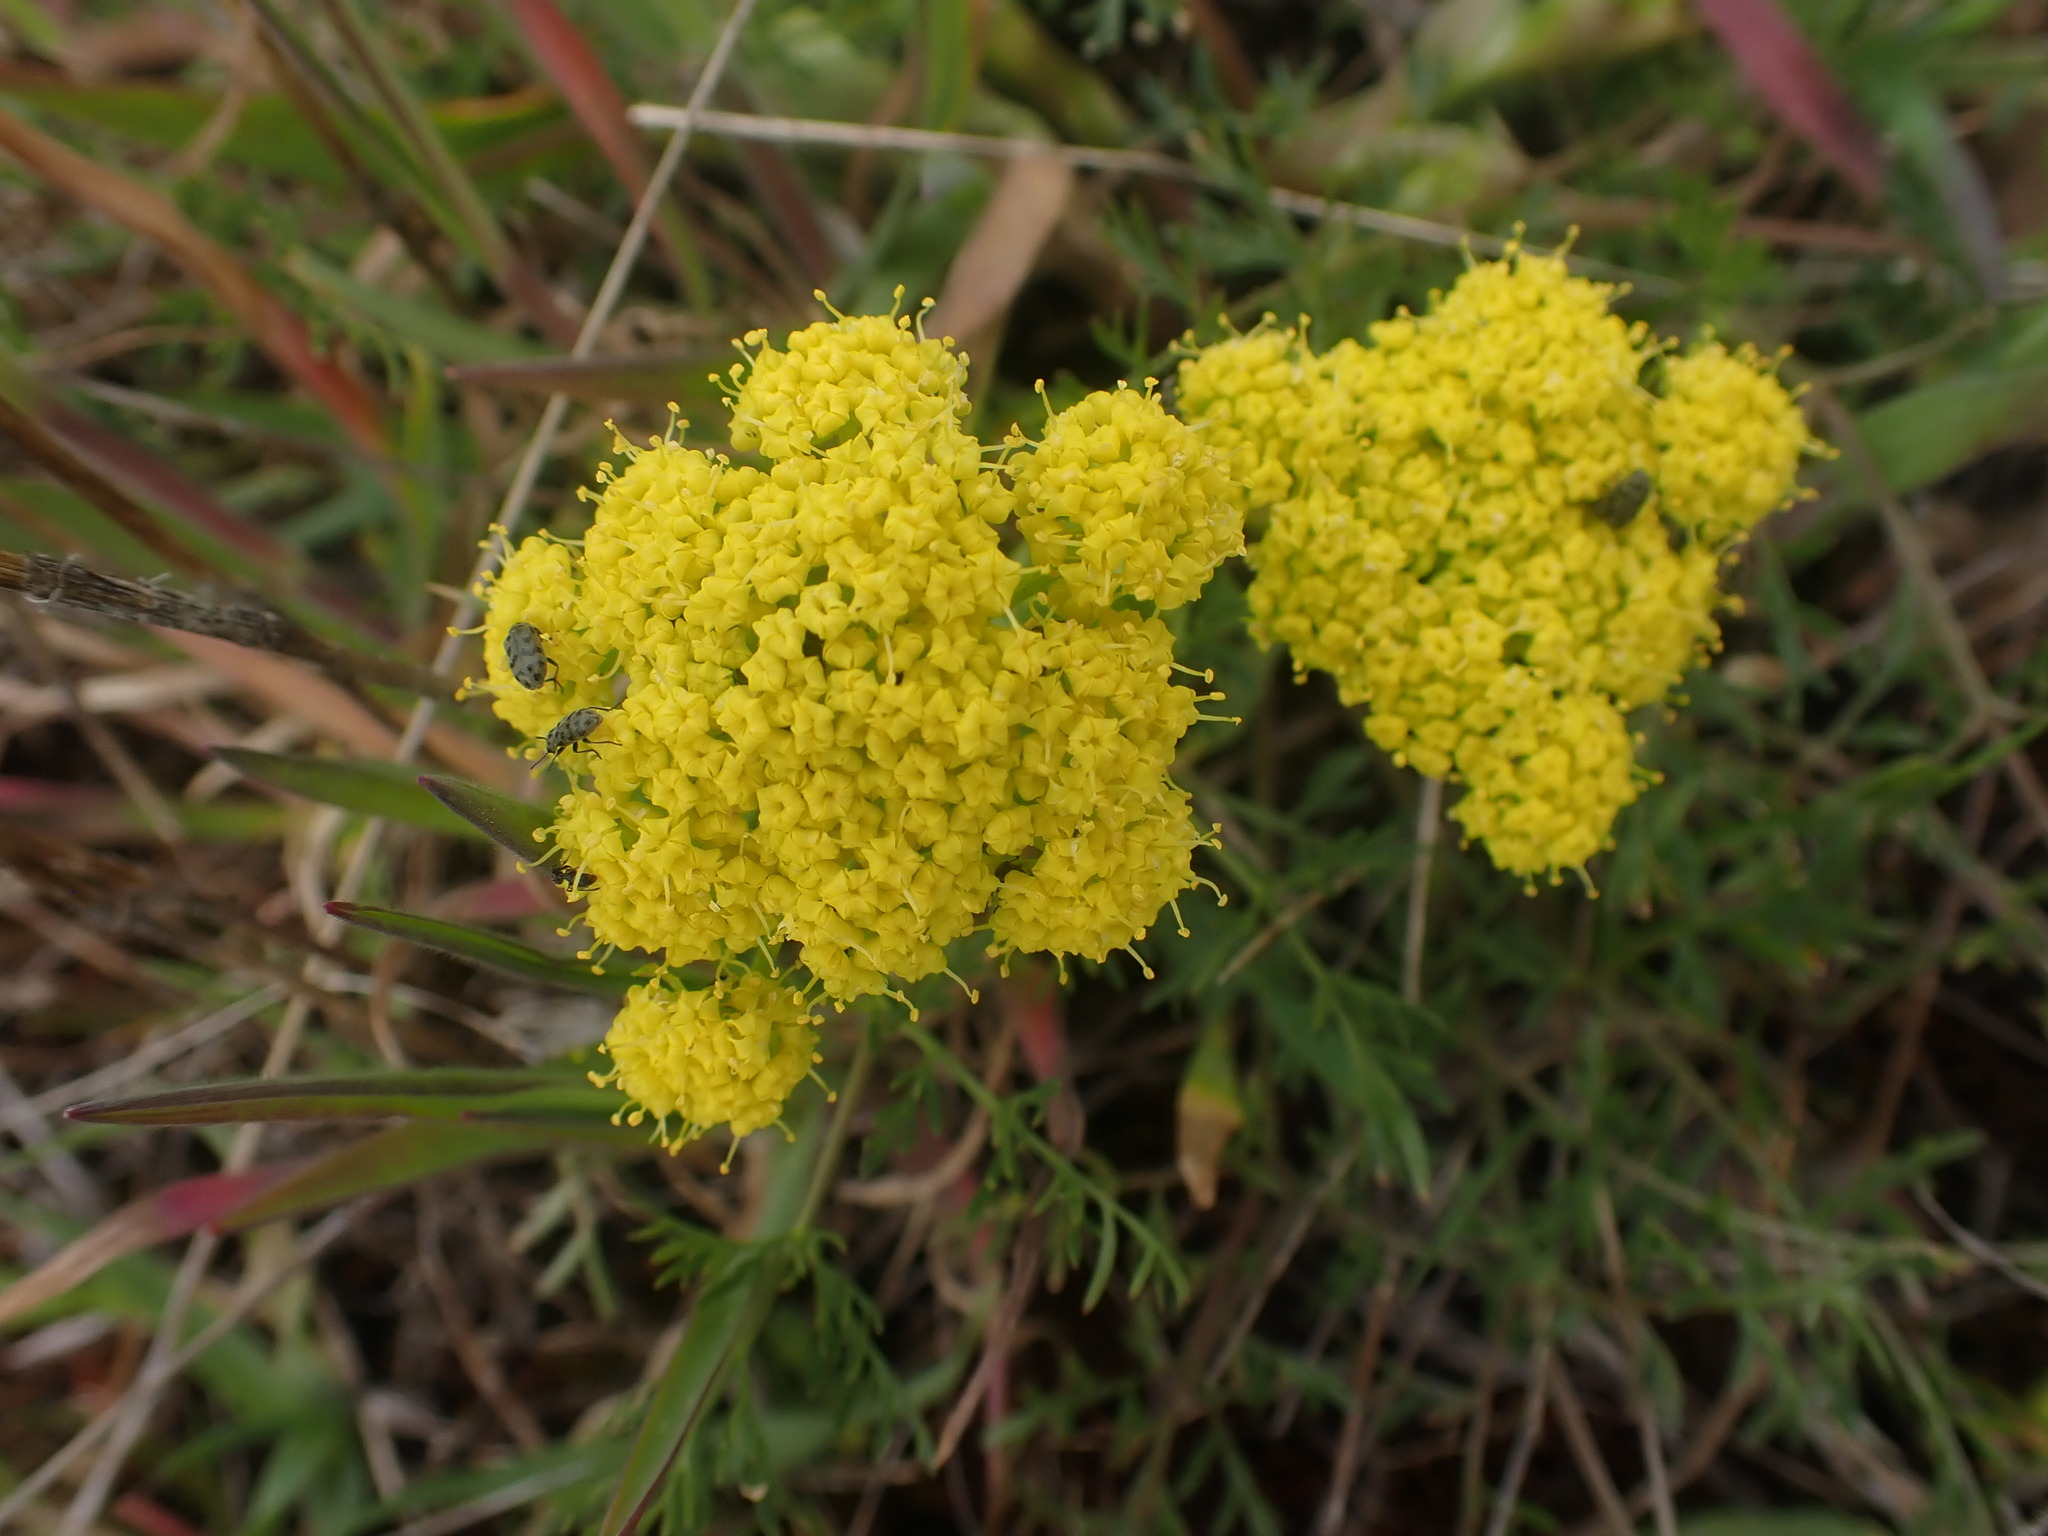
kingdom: Plantae
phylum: Tracheophyta
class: Magnoliopsida
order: Apiales
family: Apiaceae
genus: Lomatium
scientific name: Lomatium utriculatum
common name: Fine-leaf desert-parsley
